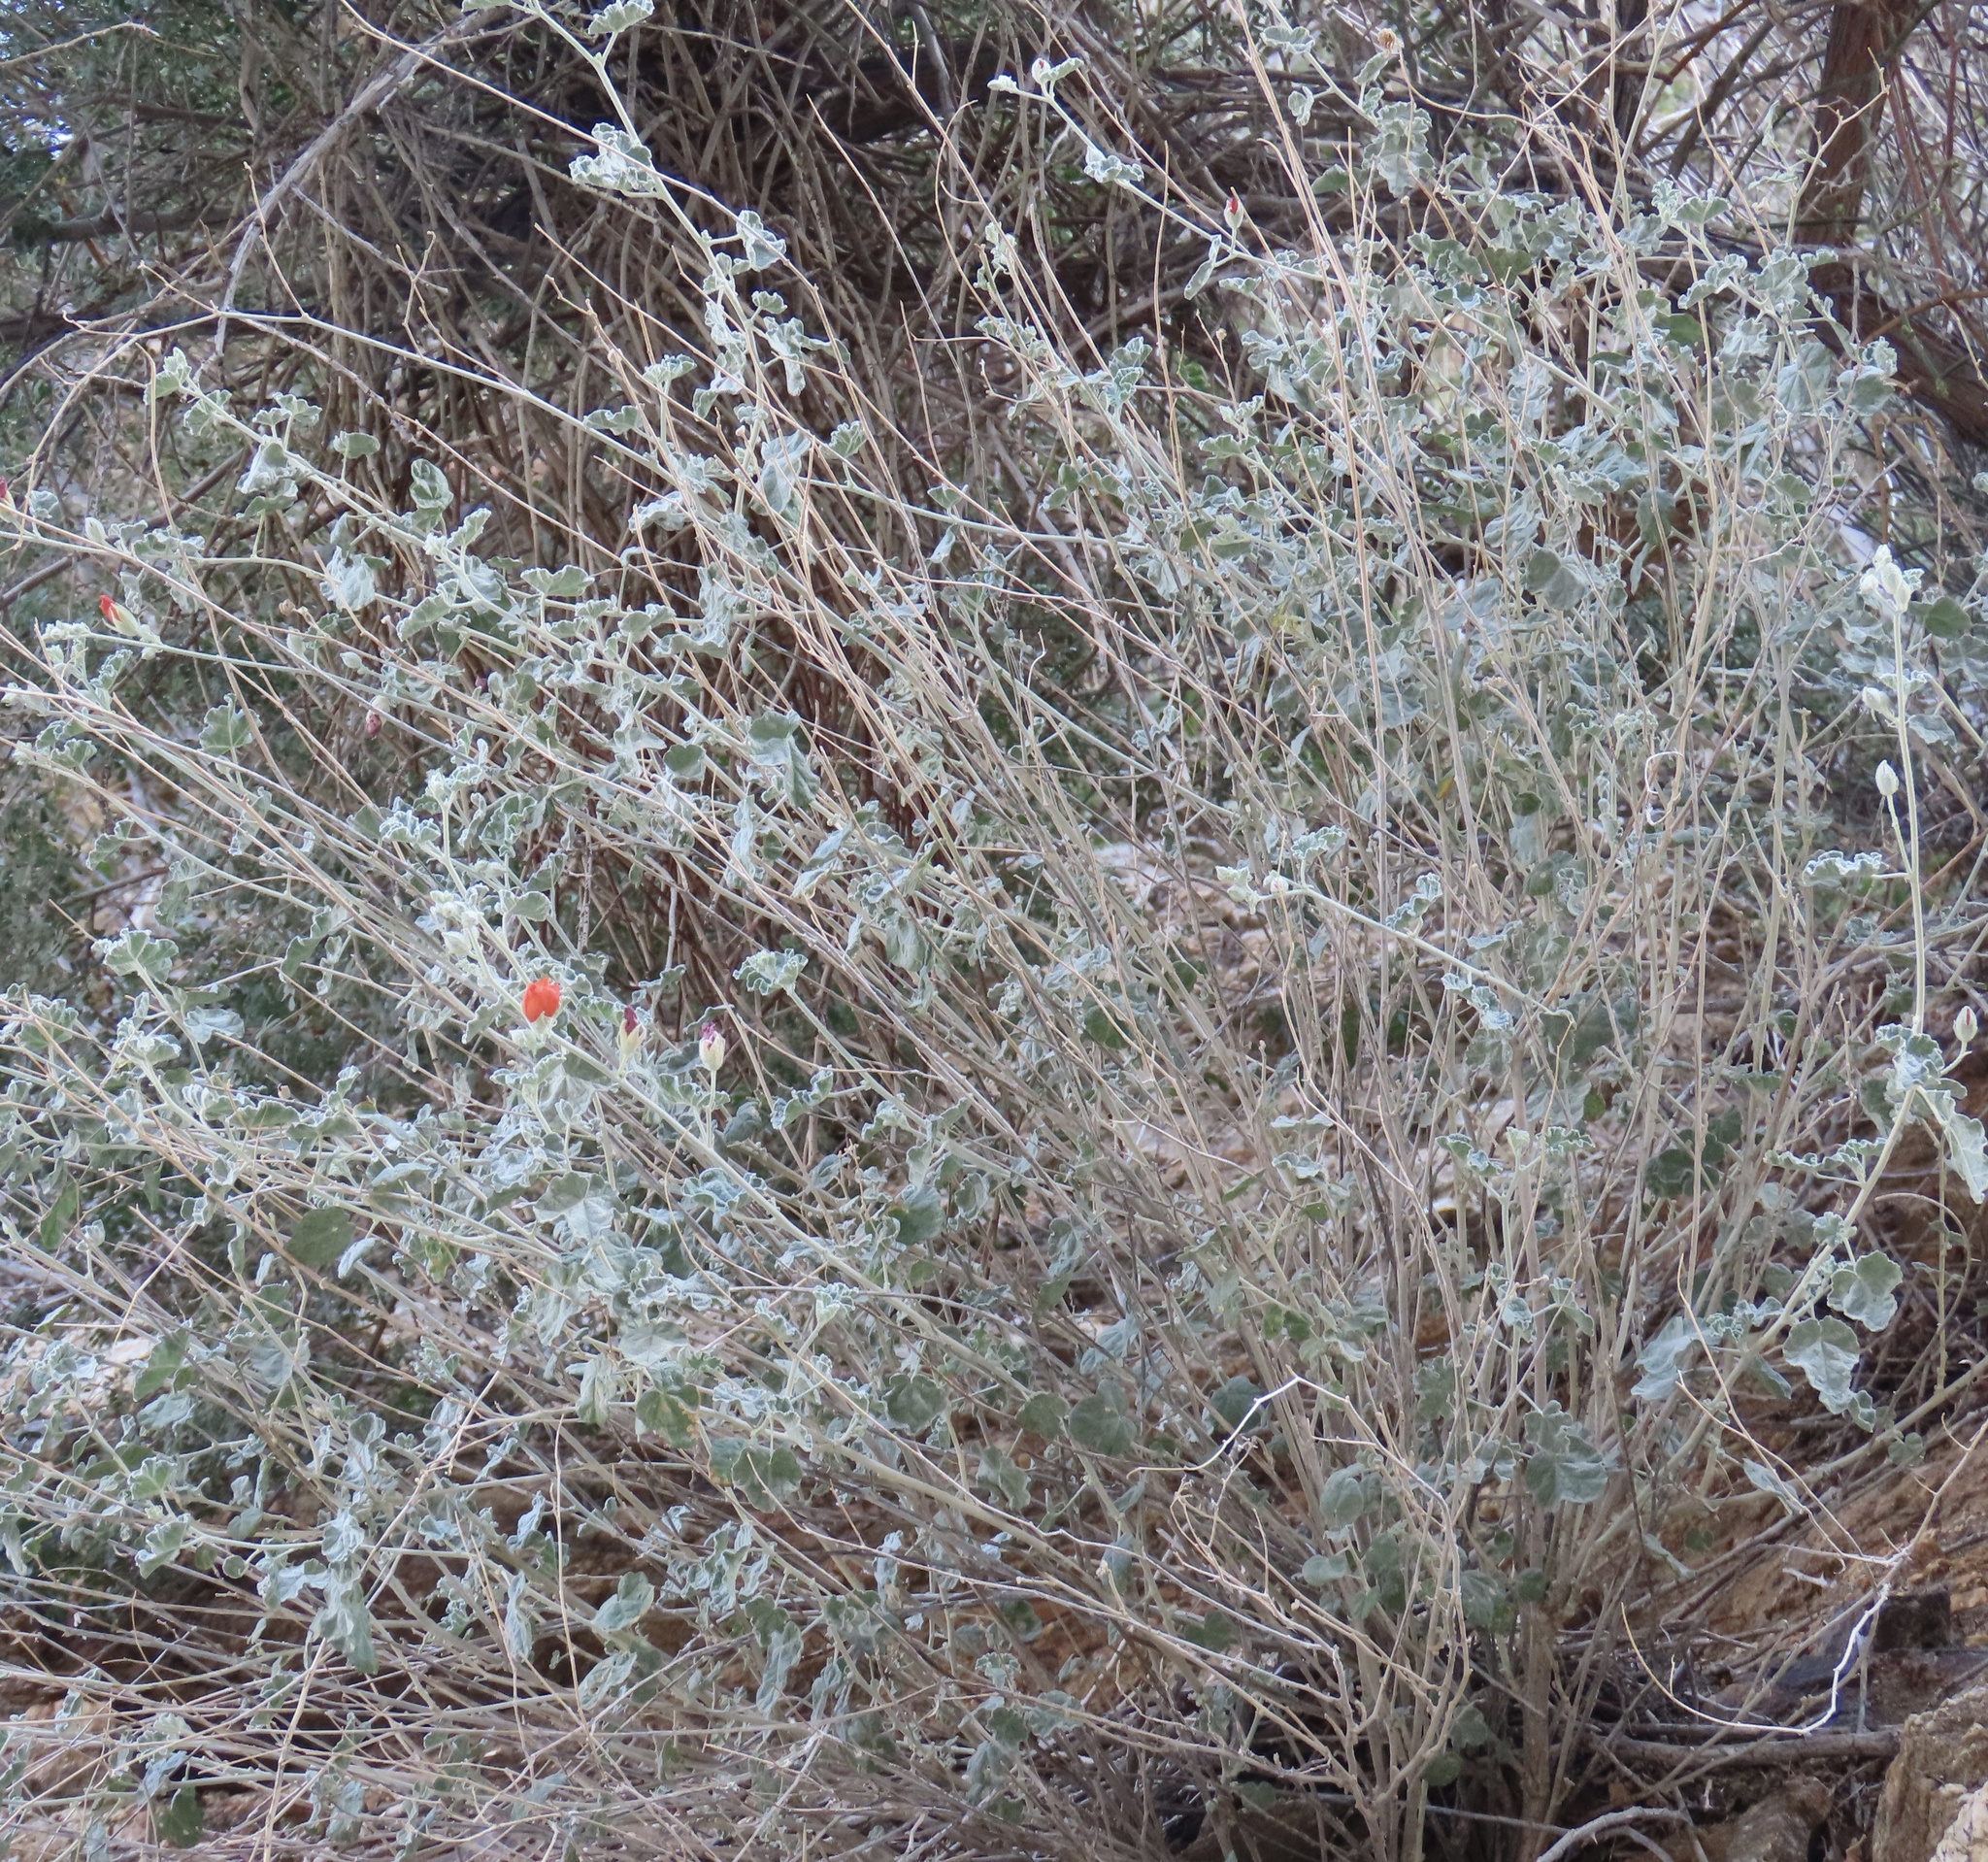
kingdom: Plantae
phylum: Tracheophyta
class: Magnoliopsida
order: Malvales
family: Malvaceae
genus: Sphaeralcea
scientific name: Sphaeralcea ambigua
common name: Apricot globe-mallow
